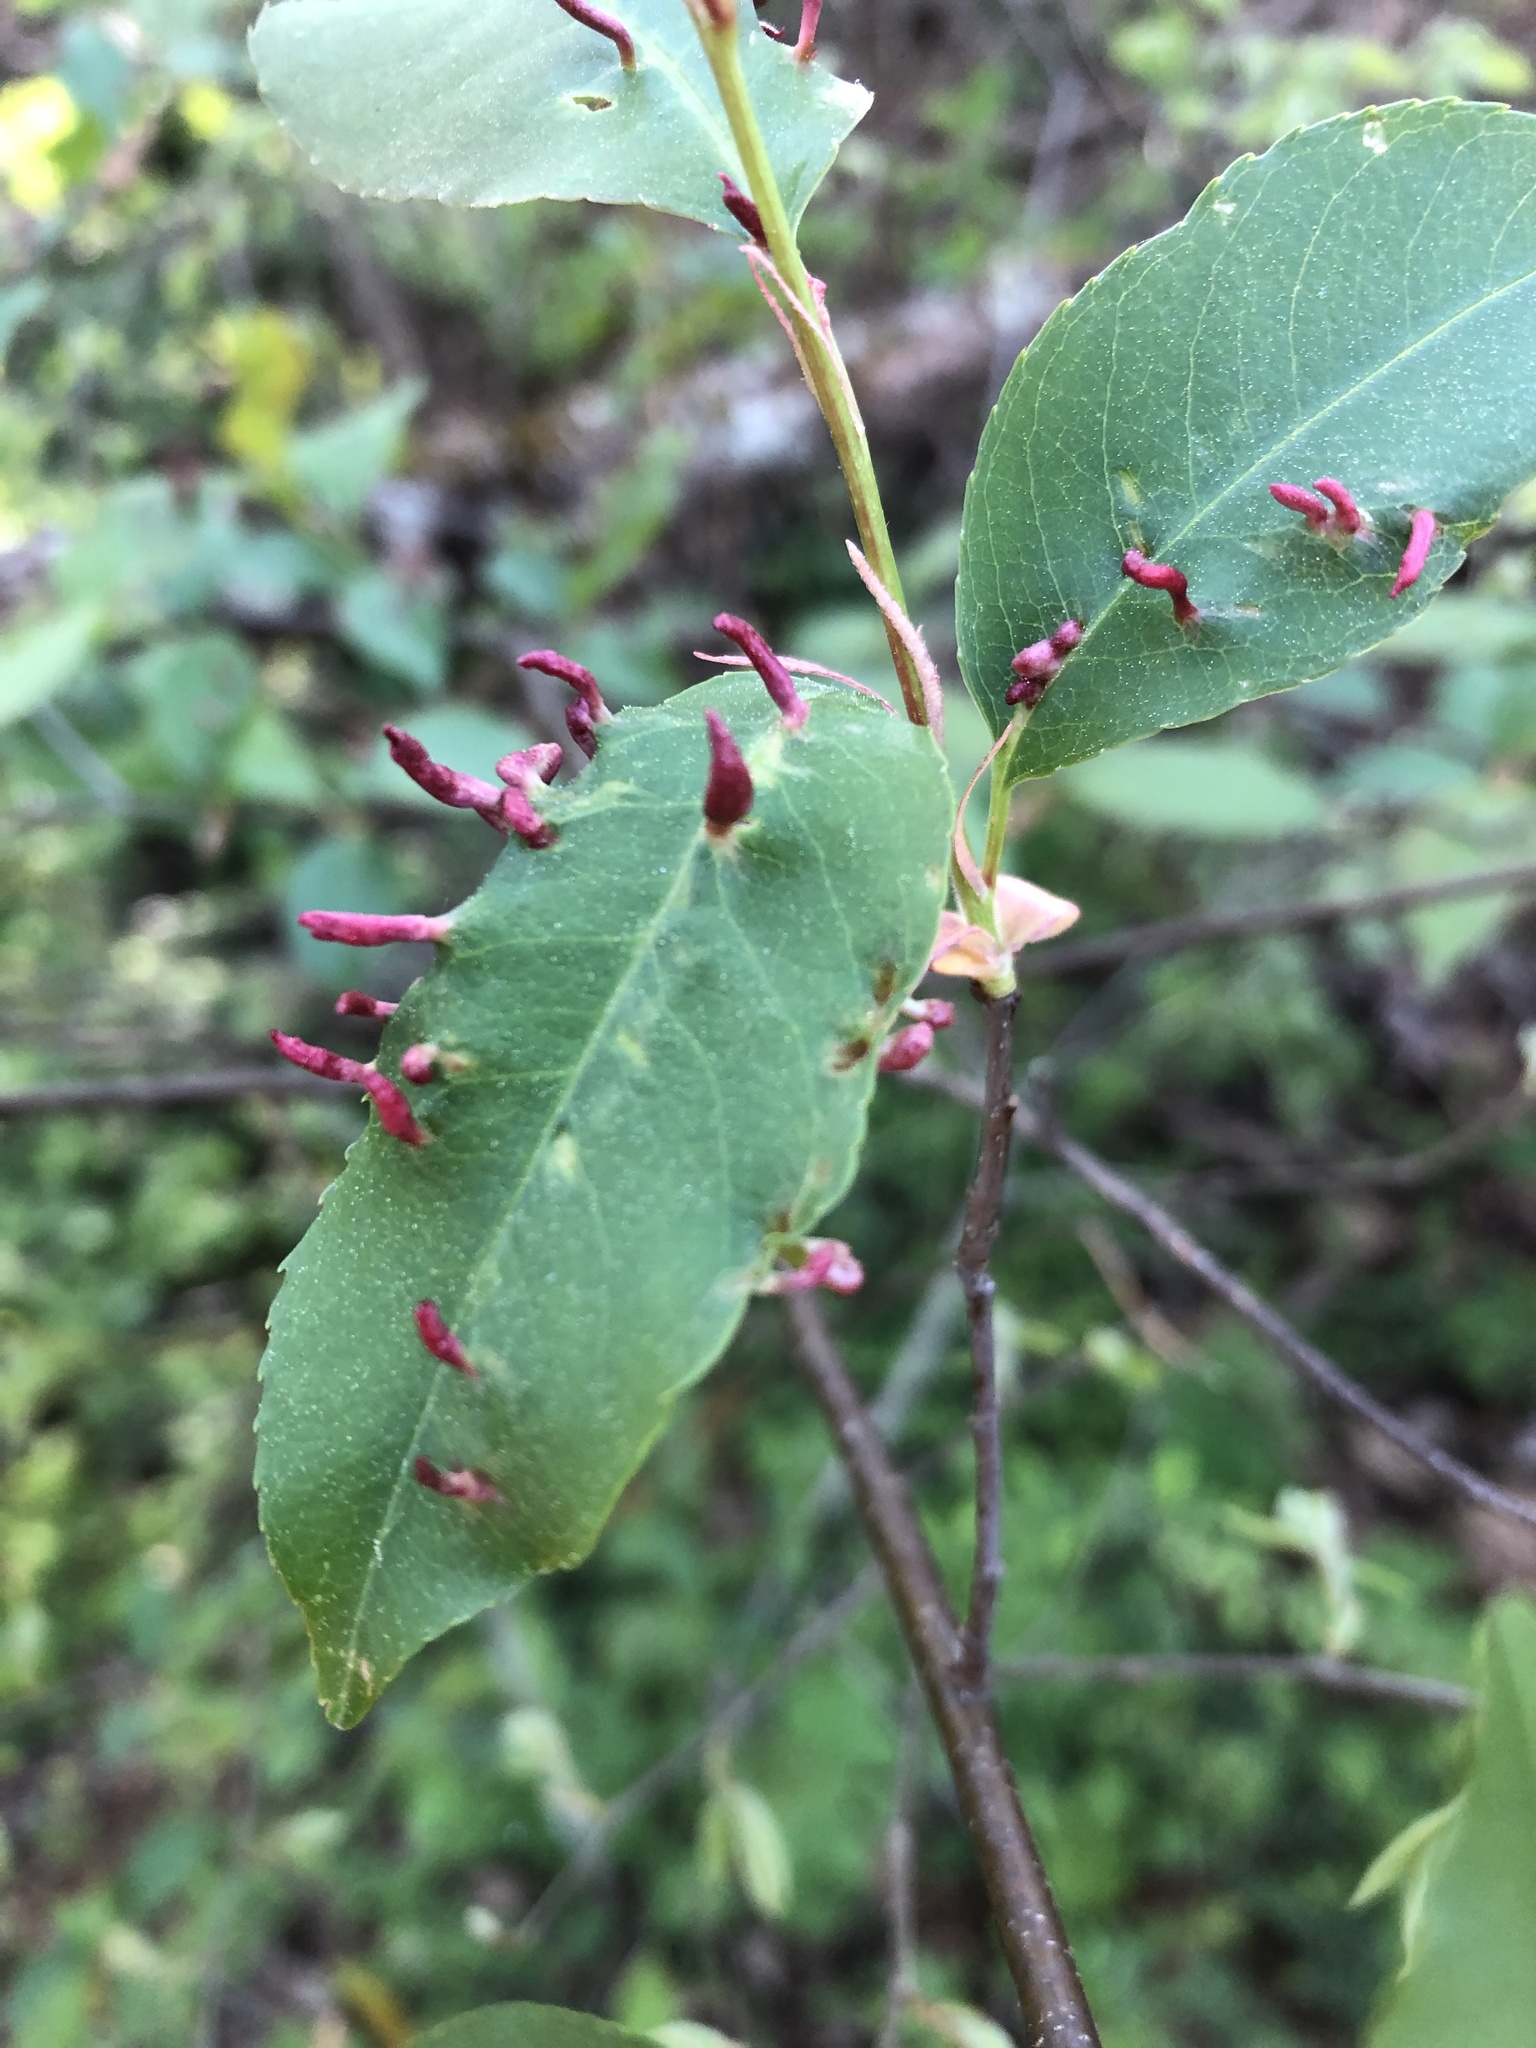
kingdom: Animalia
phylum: Arthropoda
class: Arachnida
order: Trombidiformes
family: Eriophyidae
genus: Eriophyes
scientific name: Eriophyes
